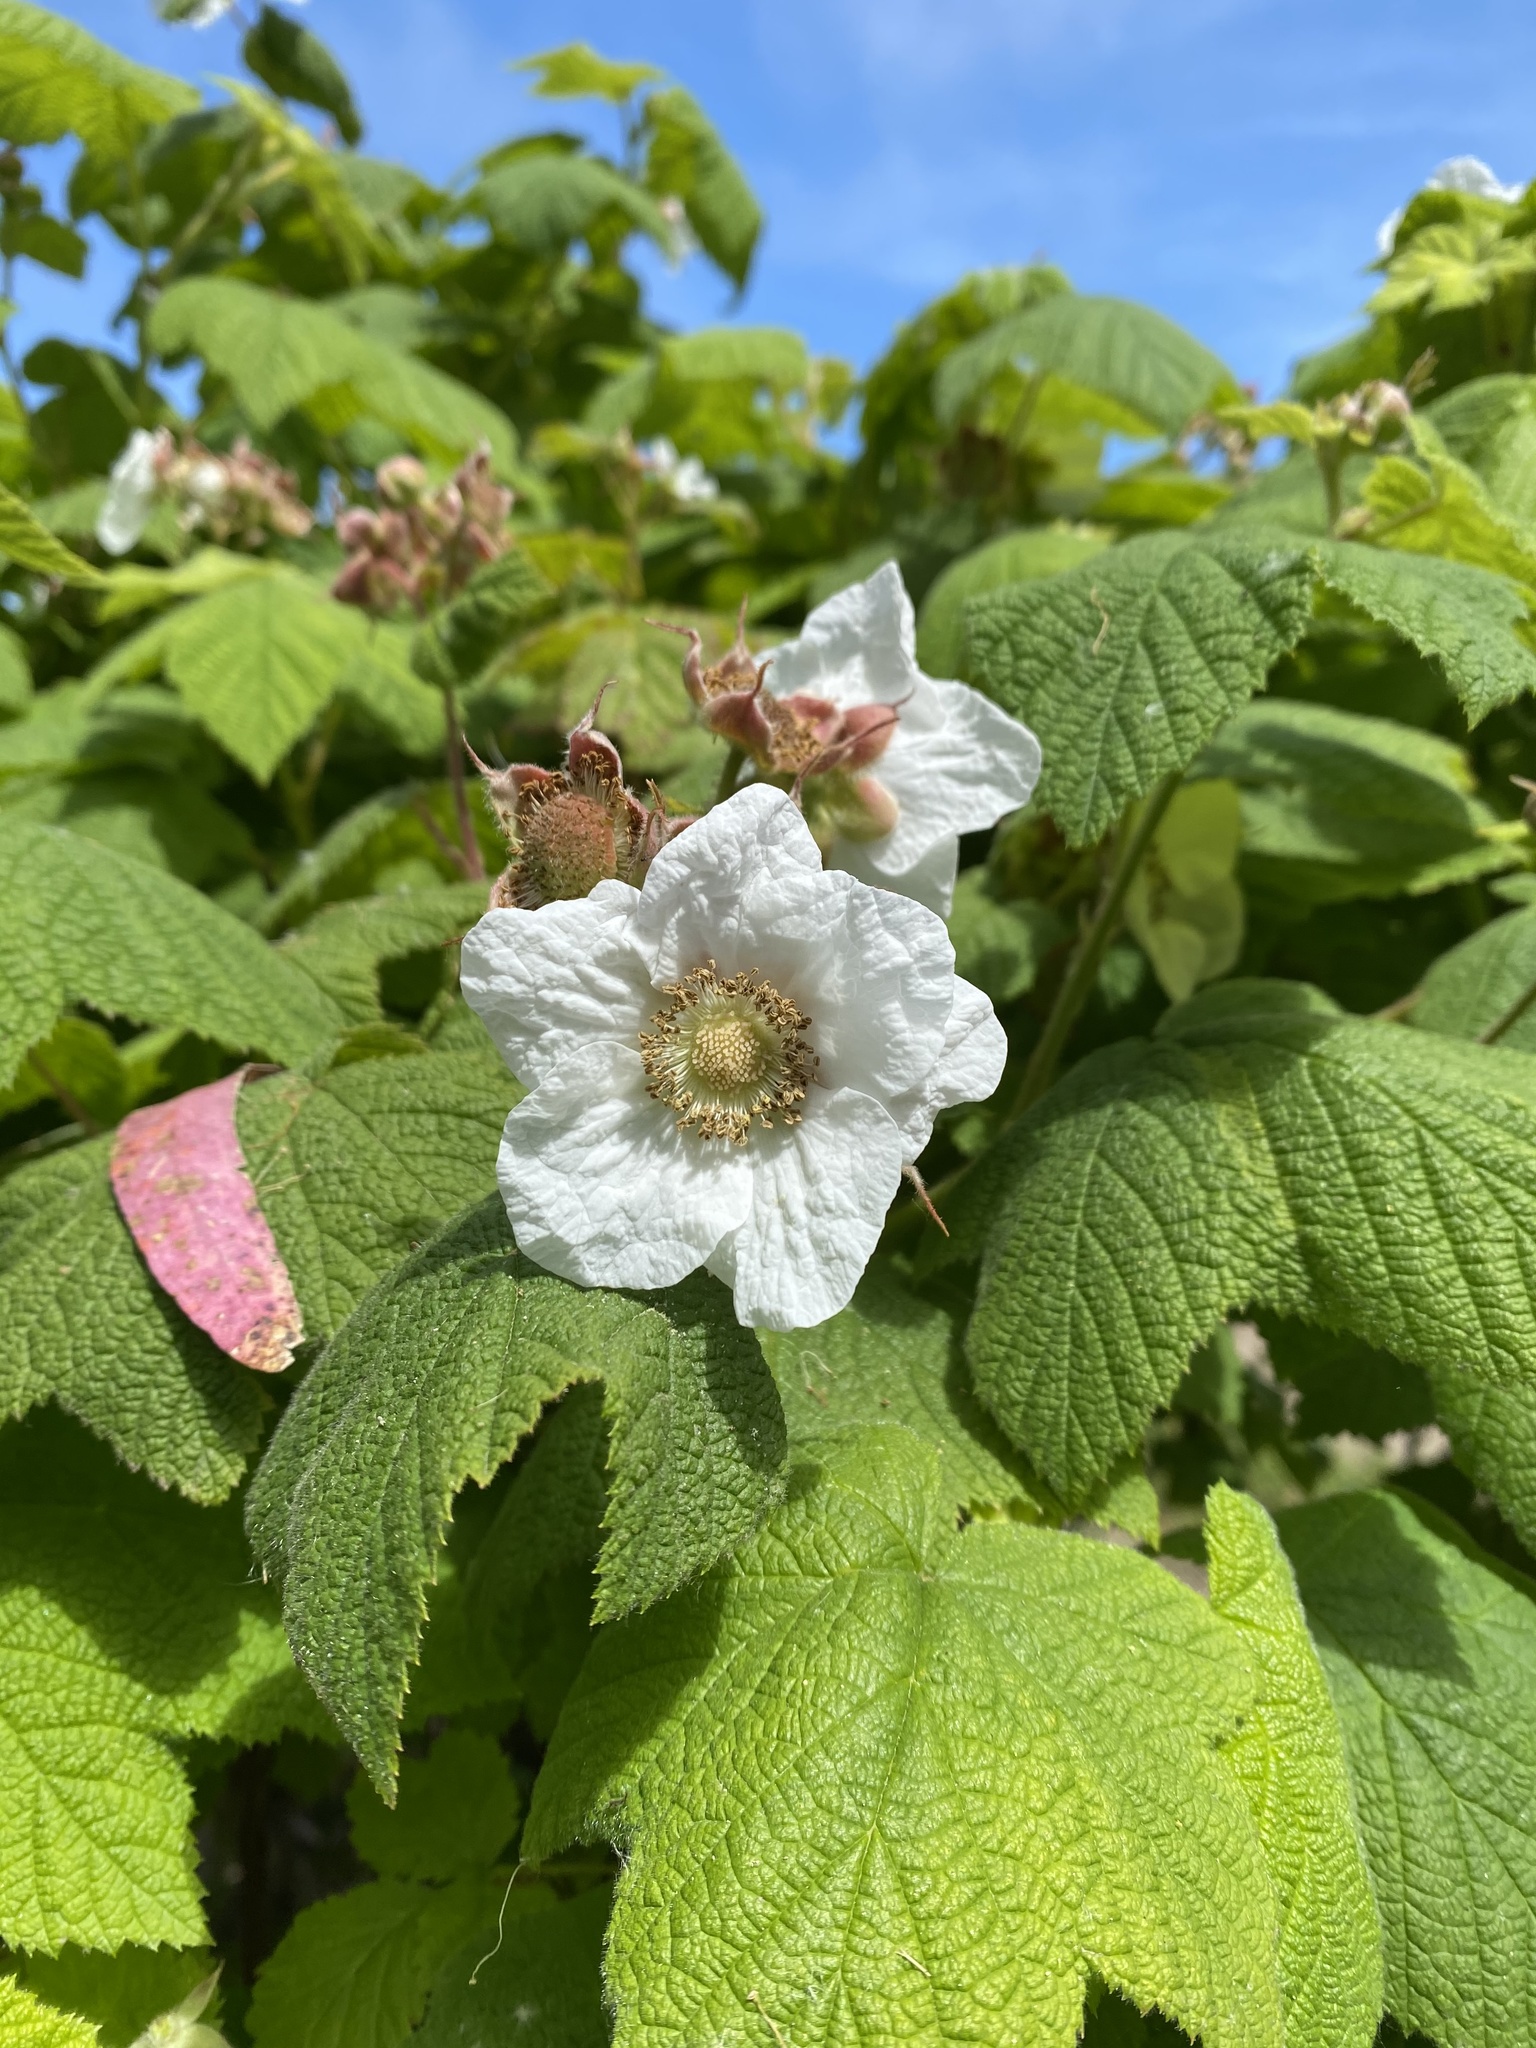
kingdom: Plantae
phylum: Tracheophyta
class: Magnoliopsida
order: Rosales
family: Rosaceae
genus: Rubus
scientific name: Rubus parviflorus
